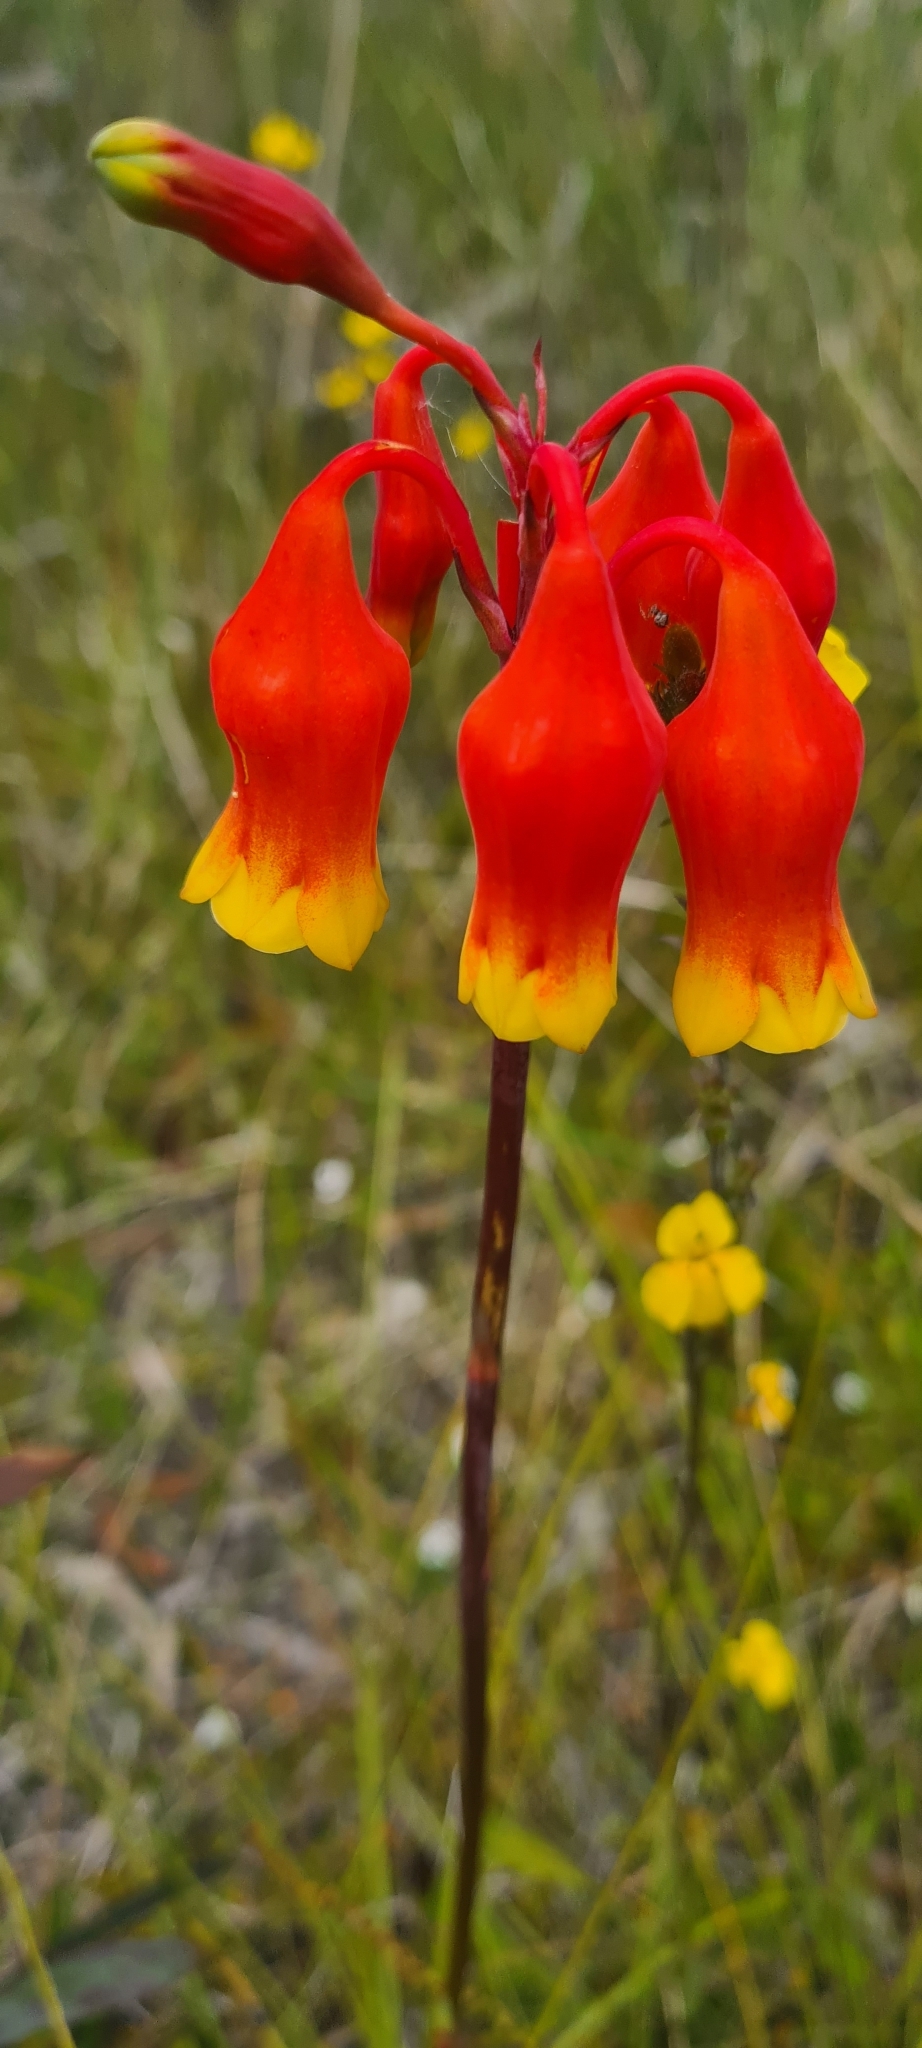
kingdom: Plantae
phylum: Tracheophyta
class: Liliopsida
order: Asparagales
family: Blandfordiaceae
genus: Blandfordia
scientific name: Blandfordia nobilis
